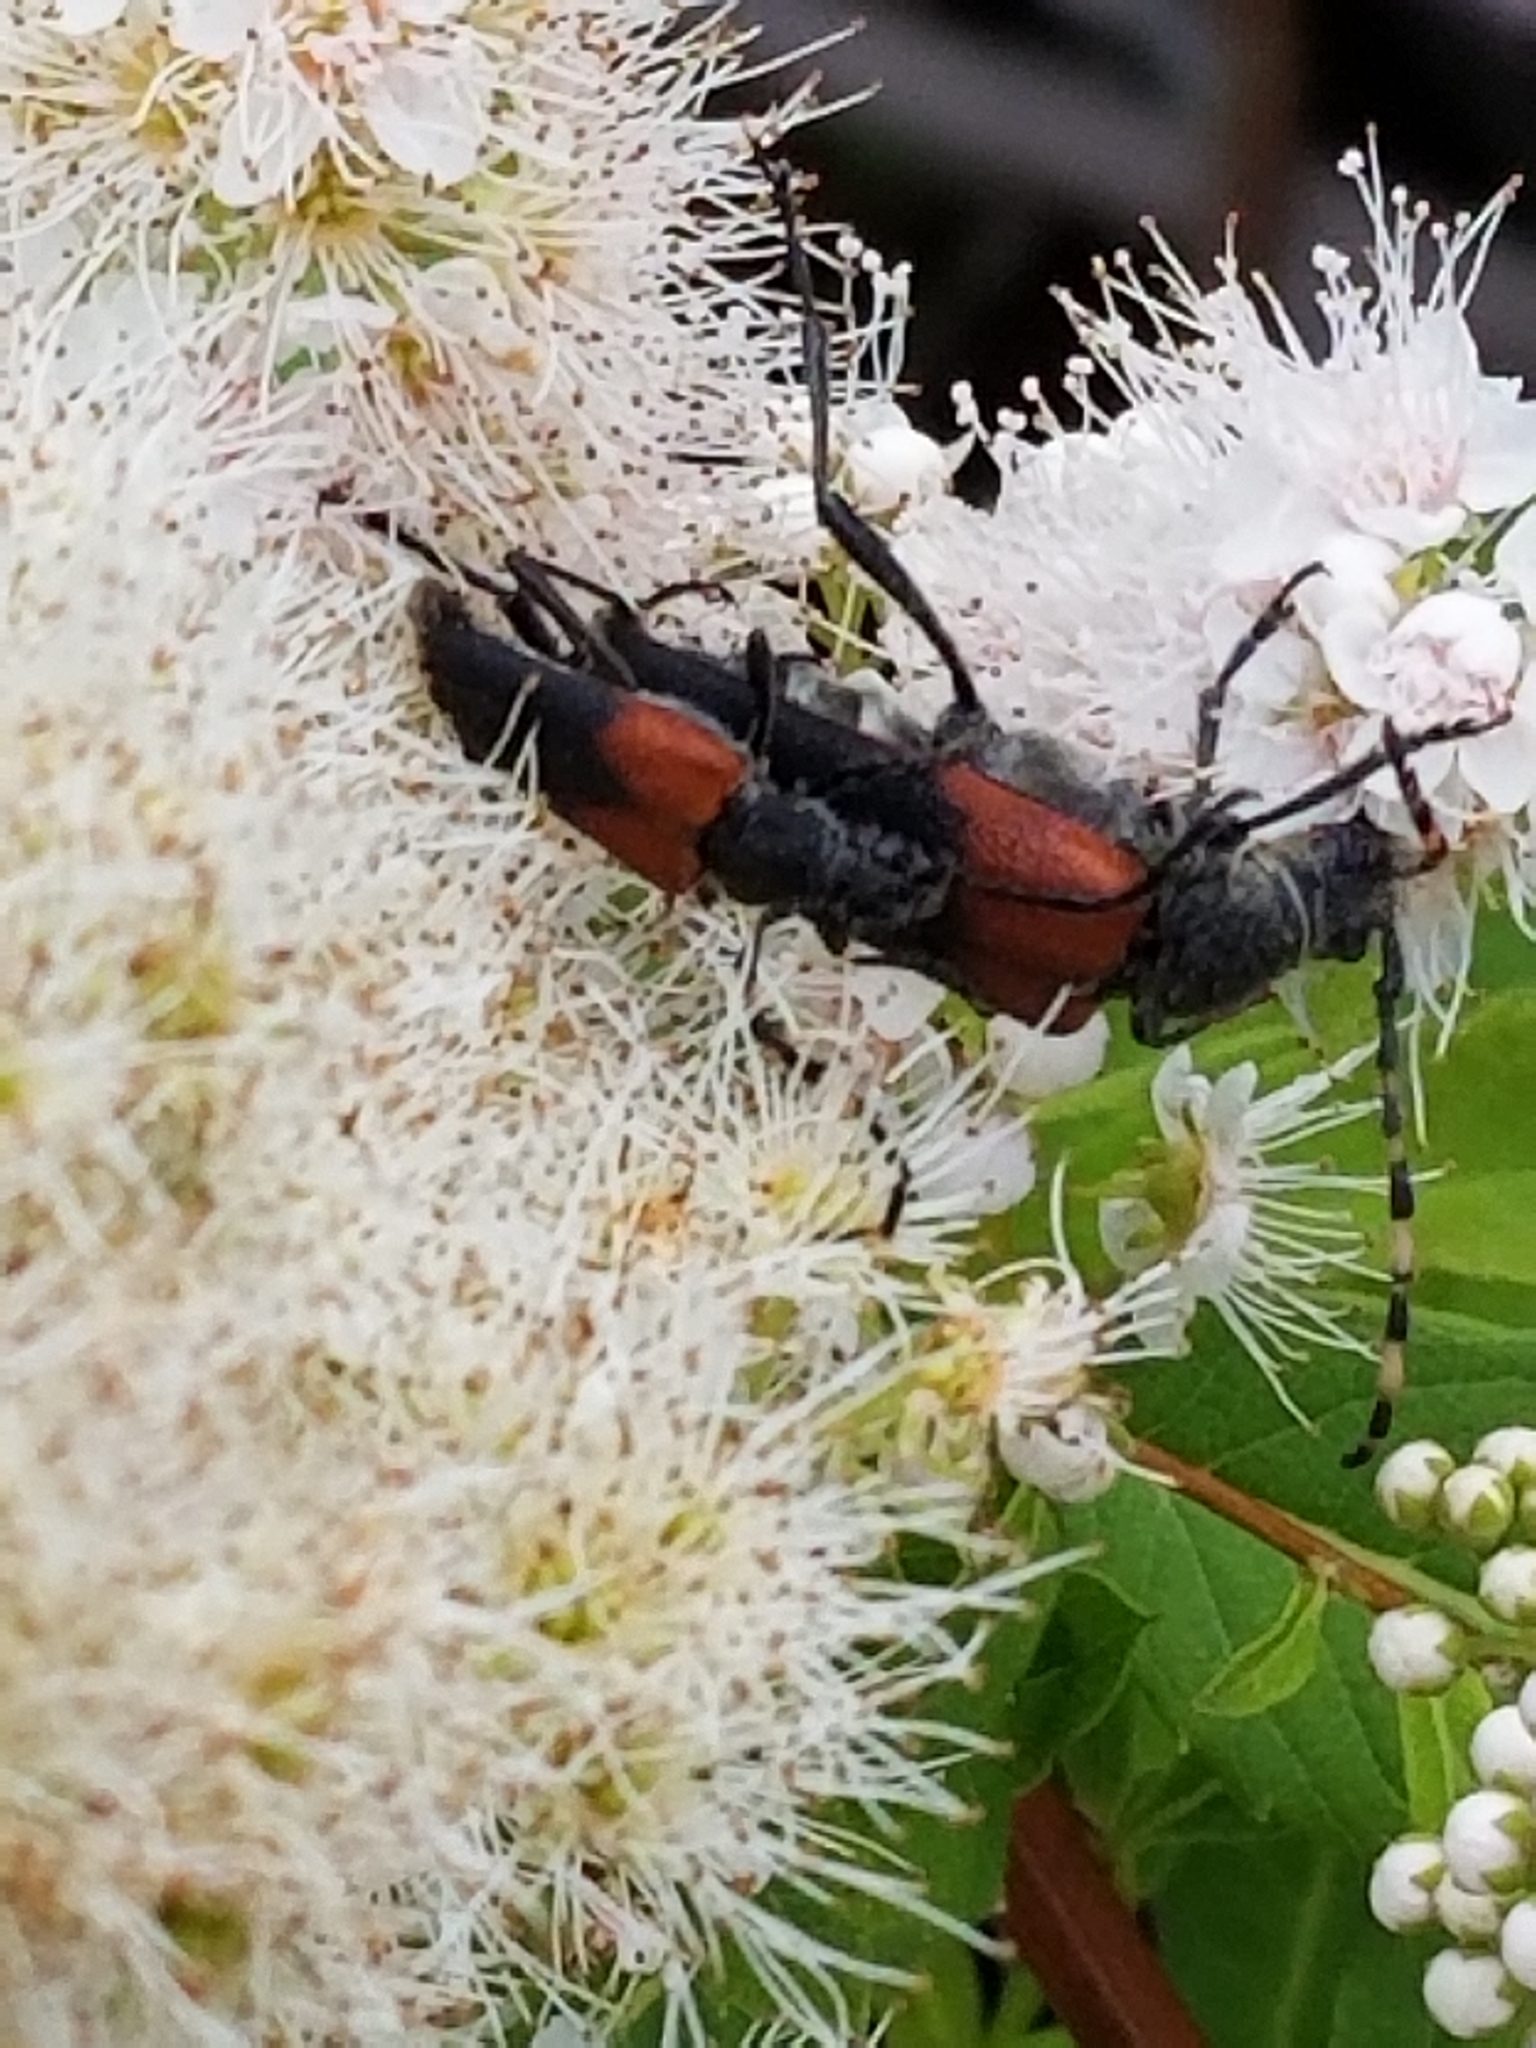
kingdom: Animalia
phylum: Arthropoda
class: Insecta
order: Coleoptera
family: Cerambycidae
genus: Stictoleptura
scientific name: Stictoleptura canadensis
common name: Red-shouldered pine borer
